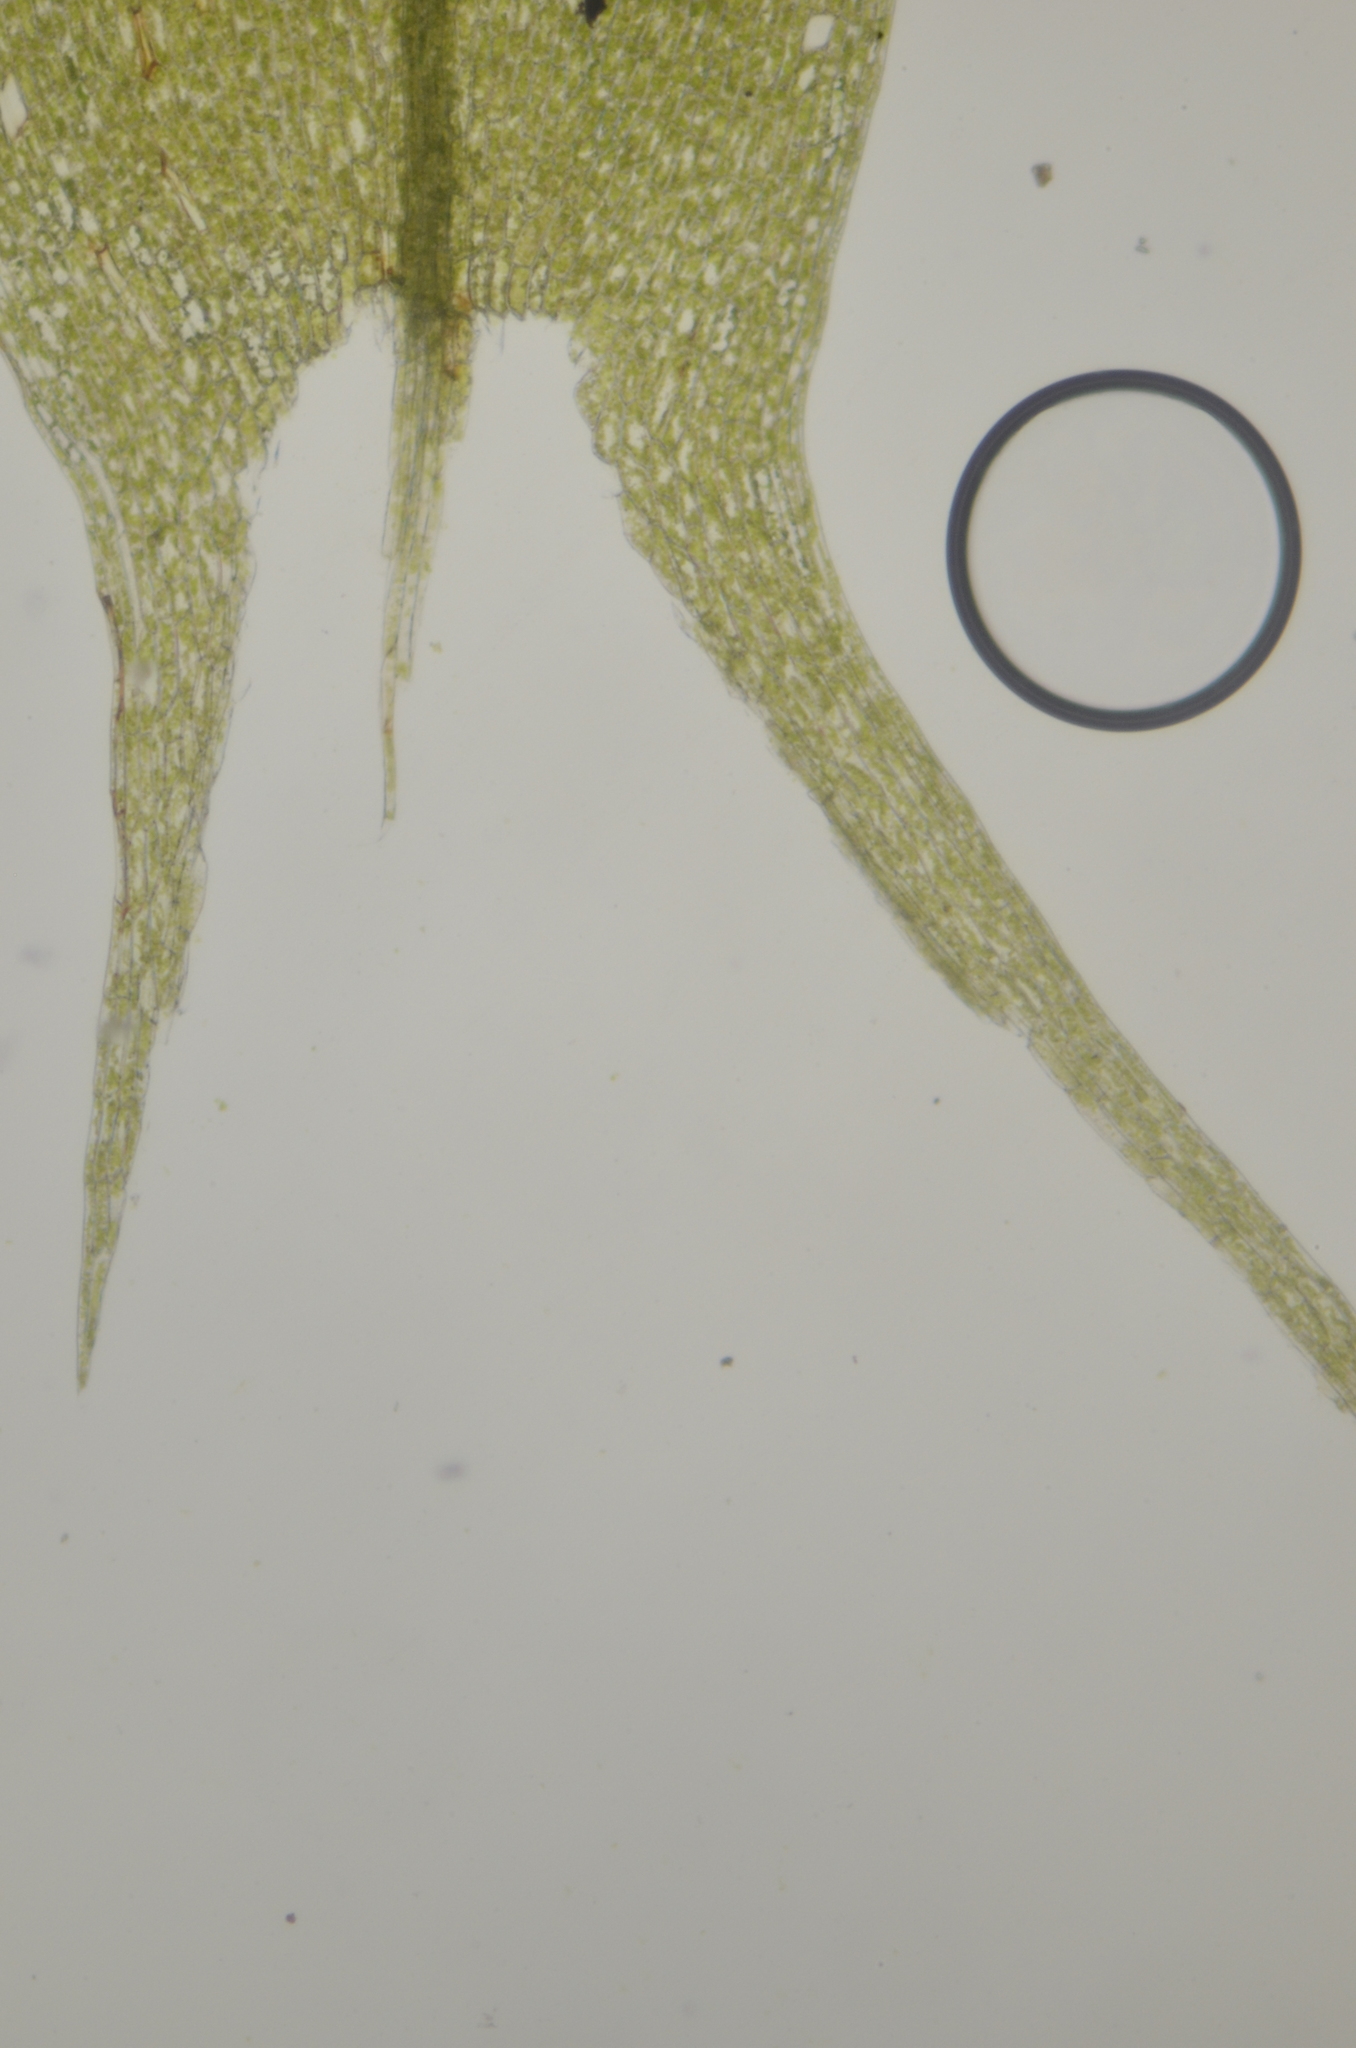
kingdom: Plantae
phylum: Bryophyta
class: Bryopsida
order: Bryales
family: Bryaceae
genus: Ptychostomum
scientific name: Ptychostomum weigelii
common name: Weigel's bryum moss
